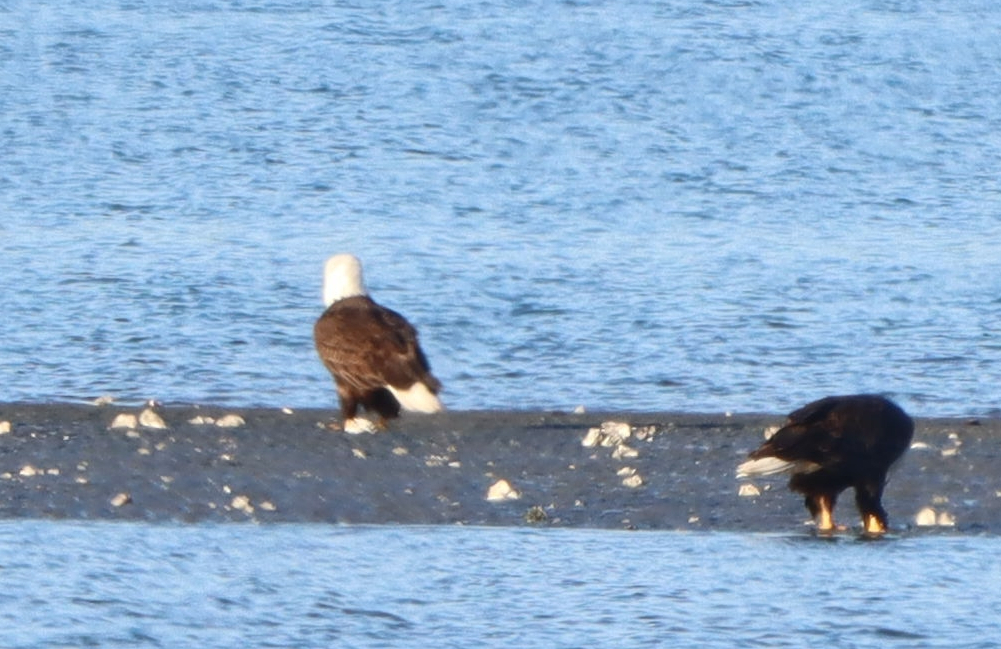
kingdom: Animalia
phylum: Chordata
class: Aves
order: Accipitriformes
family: Accipitridae
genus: Haliaeetus
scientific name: Haliaeetus leucocephalus
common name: Bald eagle
